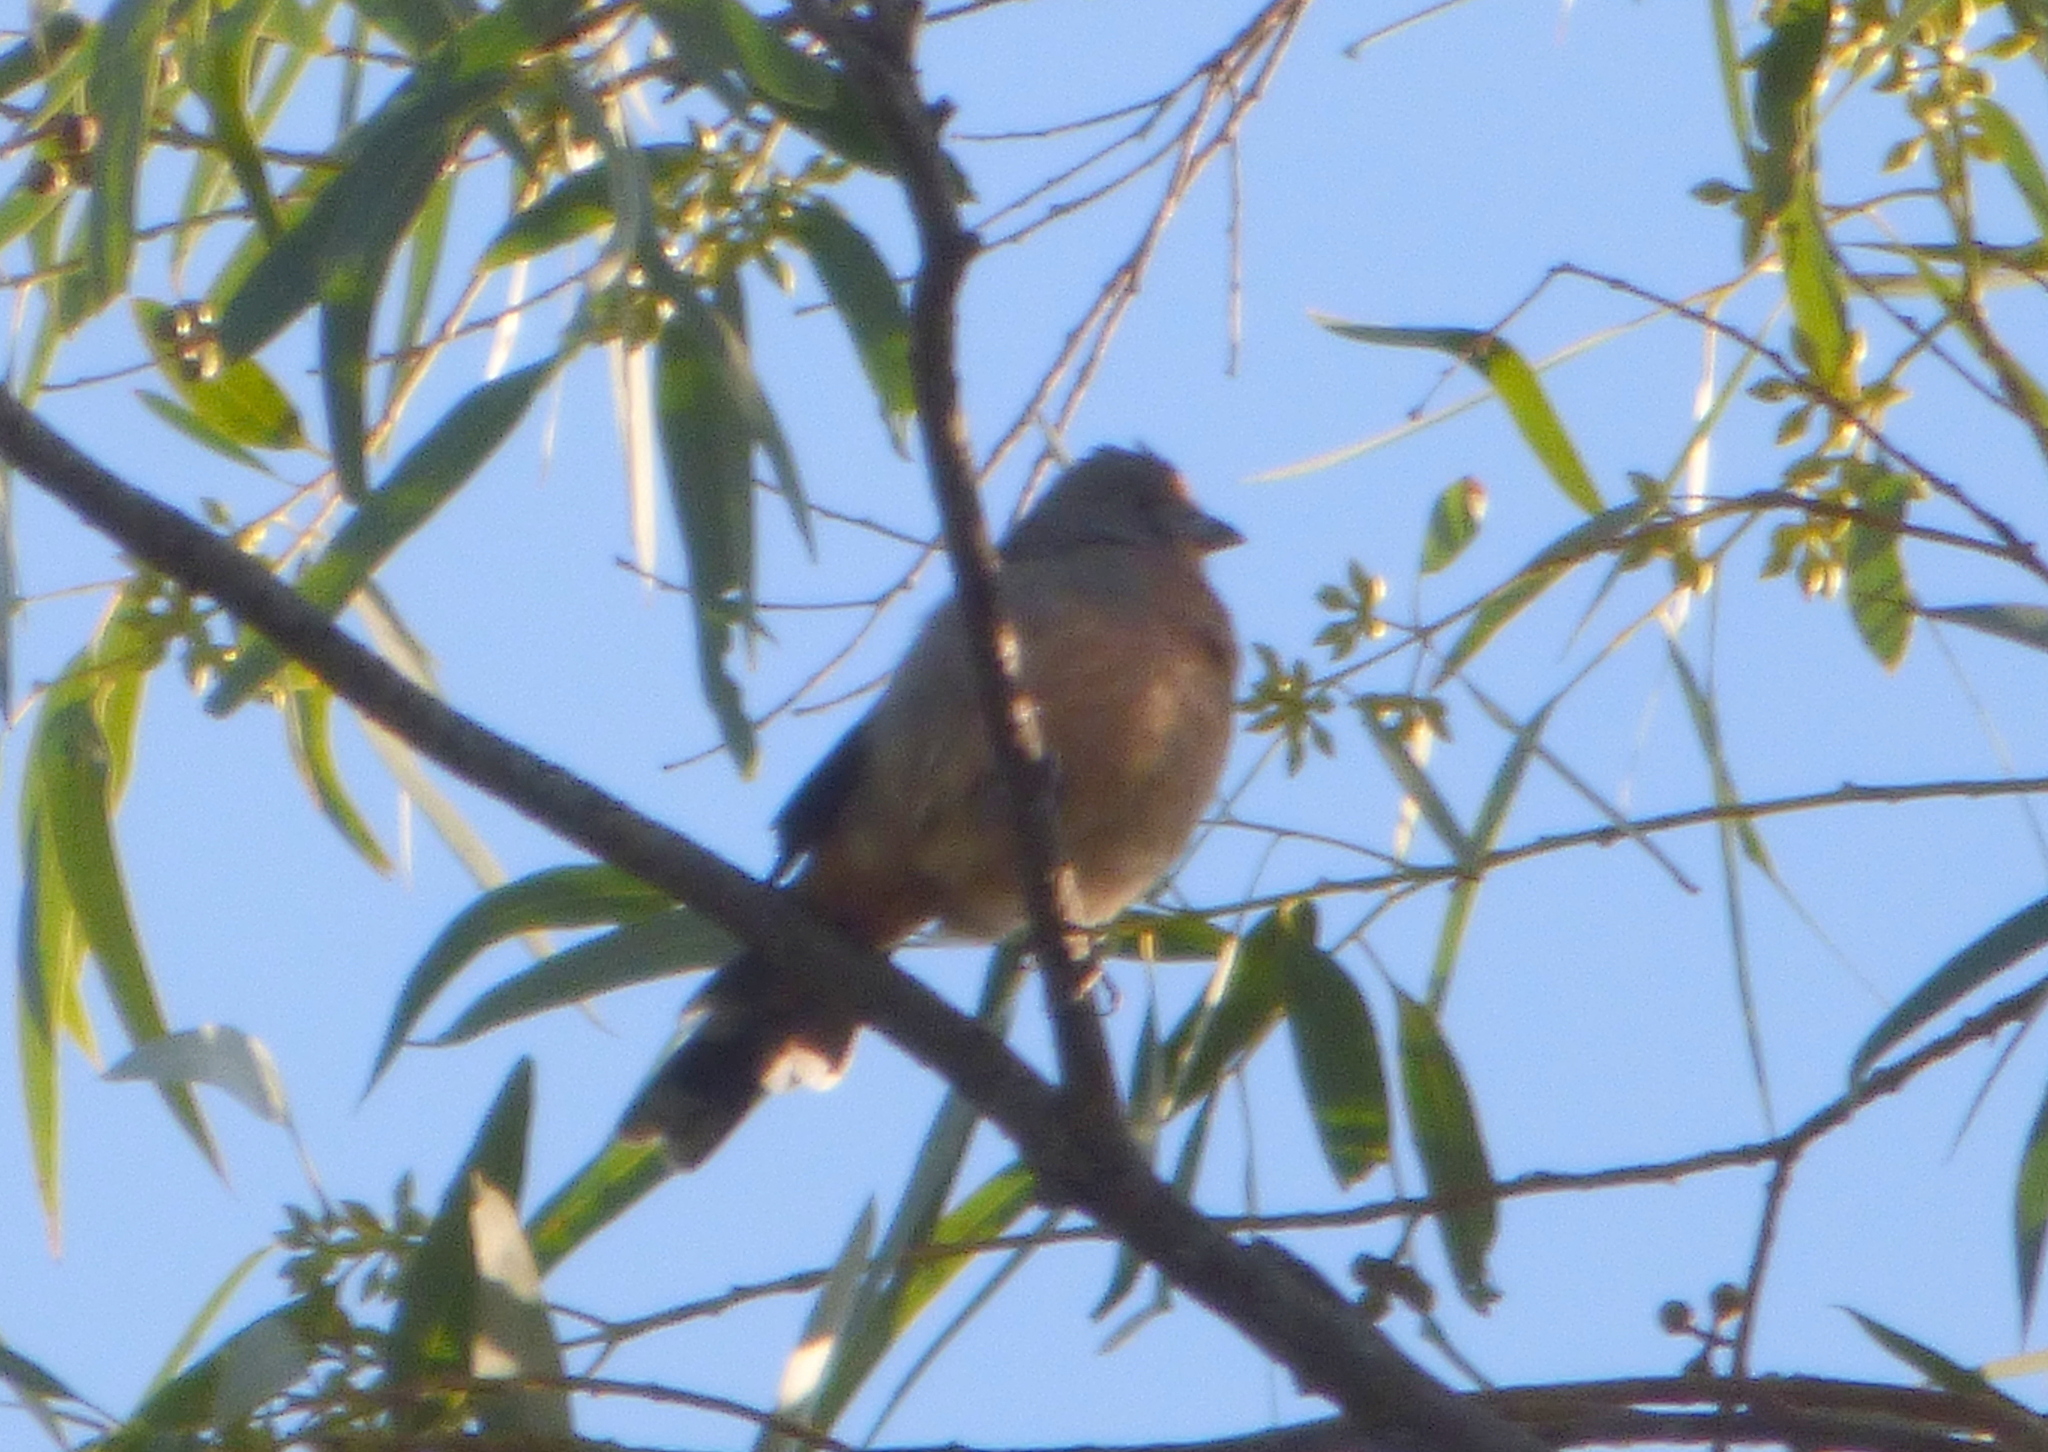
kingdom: Animalia
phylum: Chordata
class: Aves
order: Passeriformes
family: Cotingidae
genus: Phytotoma
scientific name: Phytotoma rutila
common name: White-tipped plantcutter
